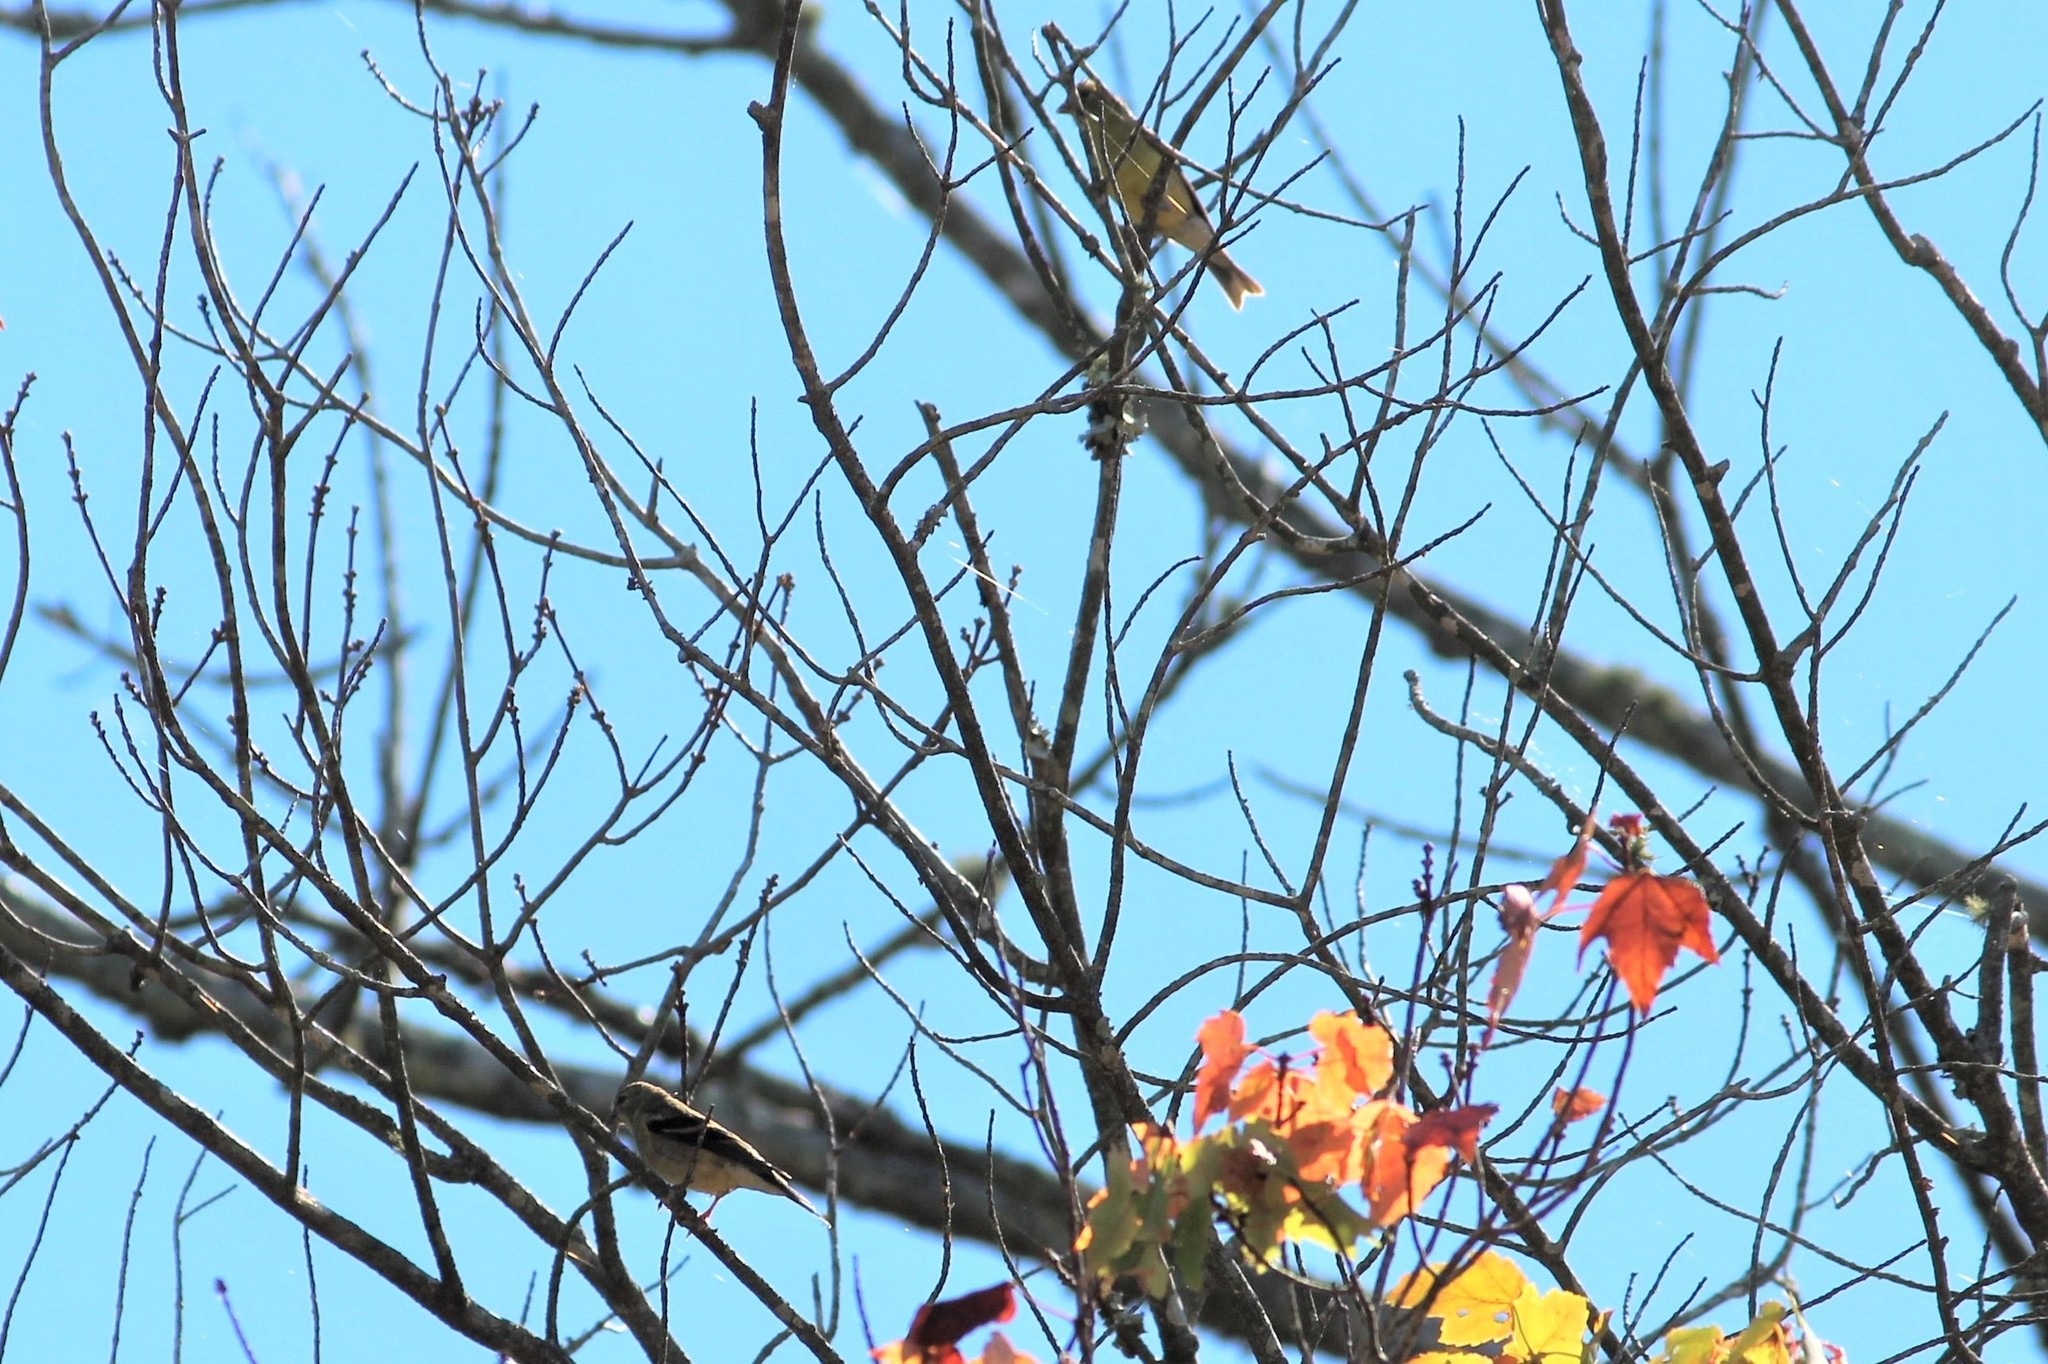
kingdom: Animalia
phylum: Chordata
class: Aves
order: Passeriformes
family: Fringillidae
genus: Spinus
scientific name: Spinus tristis
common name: American goldfinch
